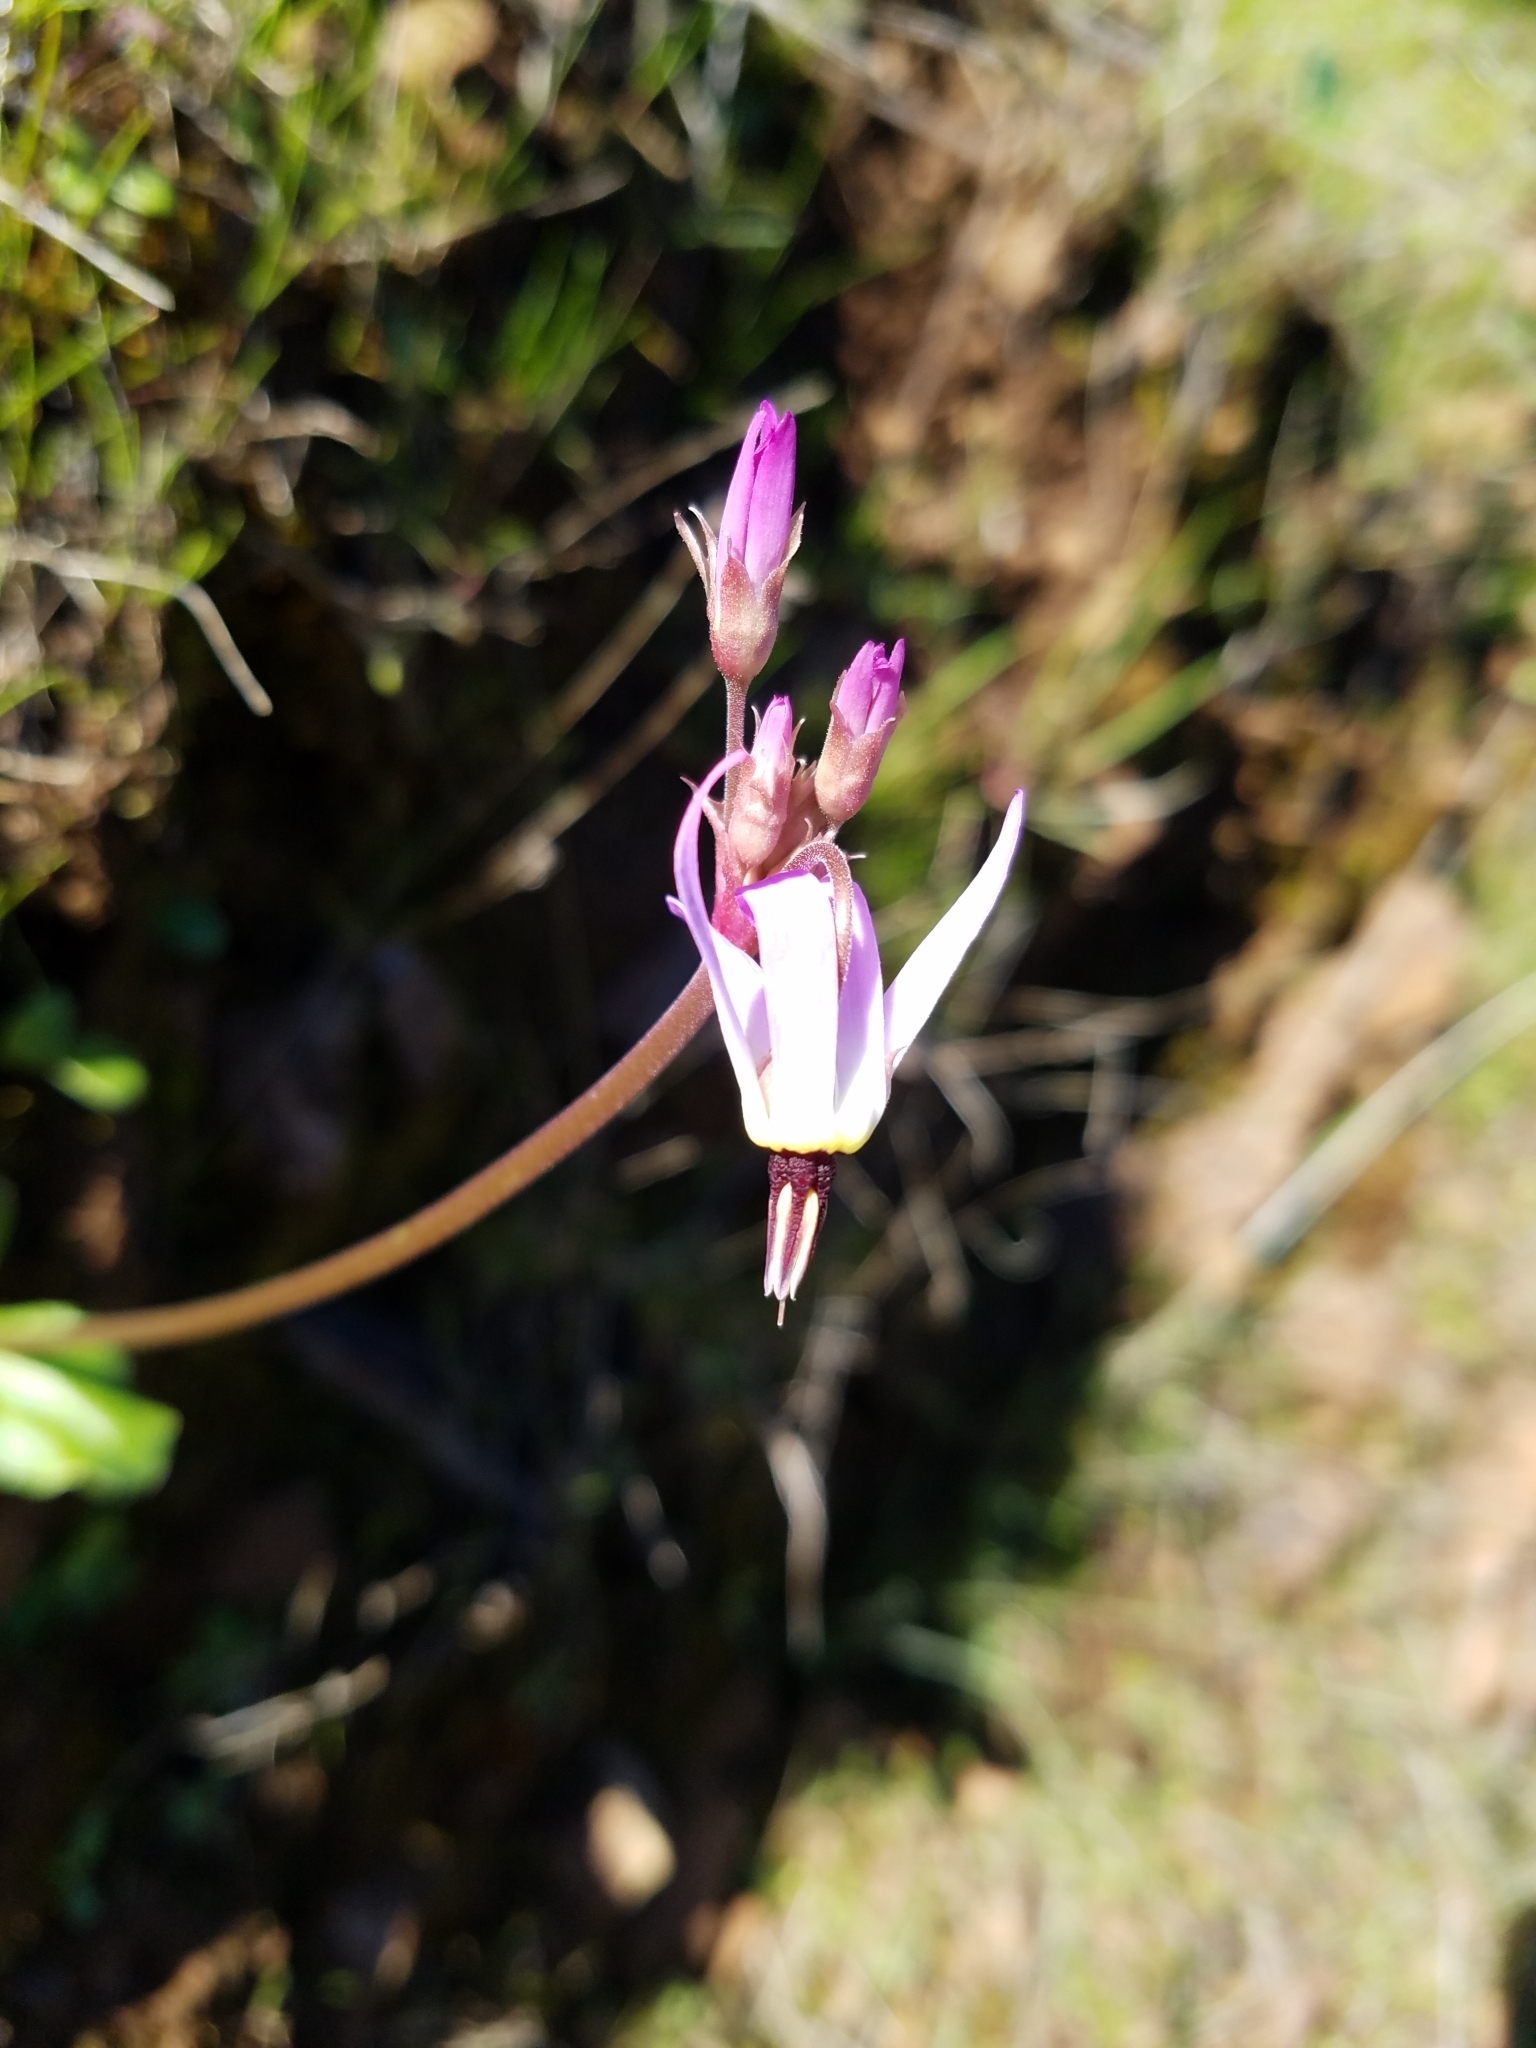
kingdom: Plantae
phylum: Tracheophyta
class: Magnoliopsida
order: Ericales
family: Primulaceae
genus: Dodecatheon
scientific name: Dodecatheon hendersonii
